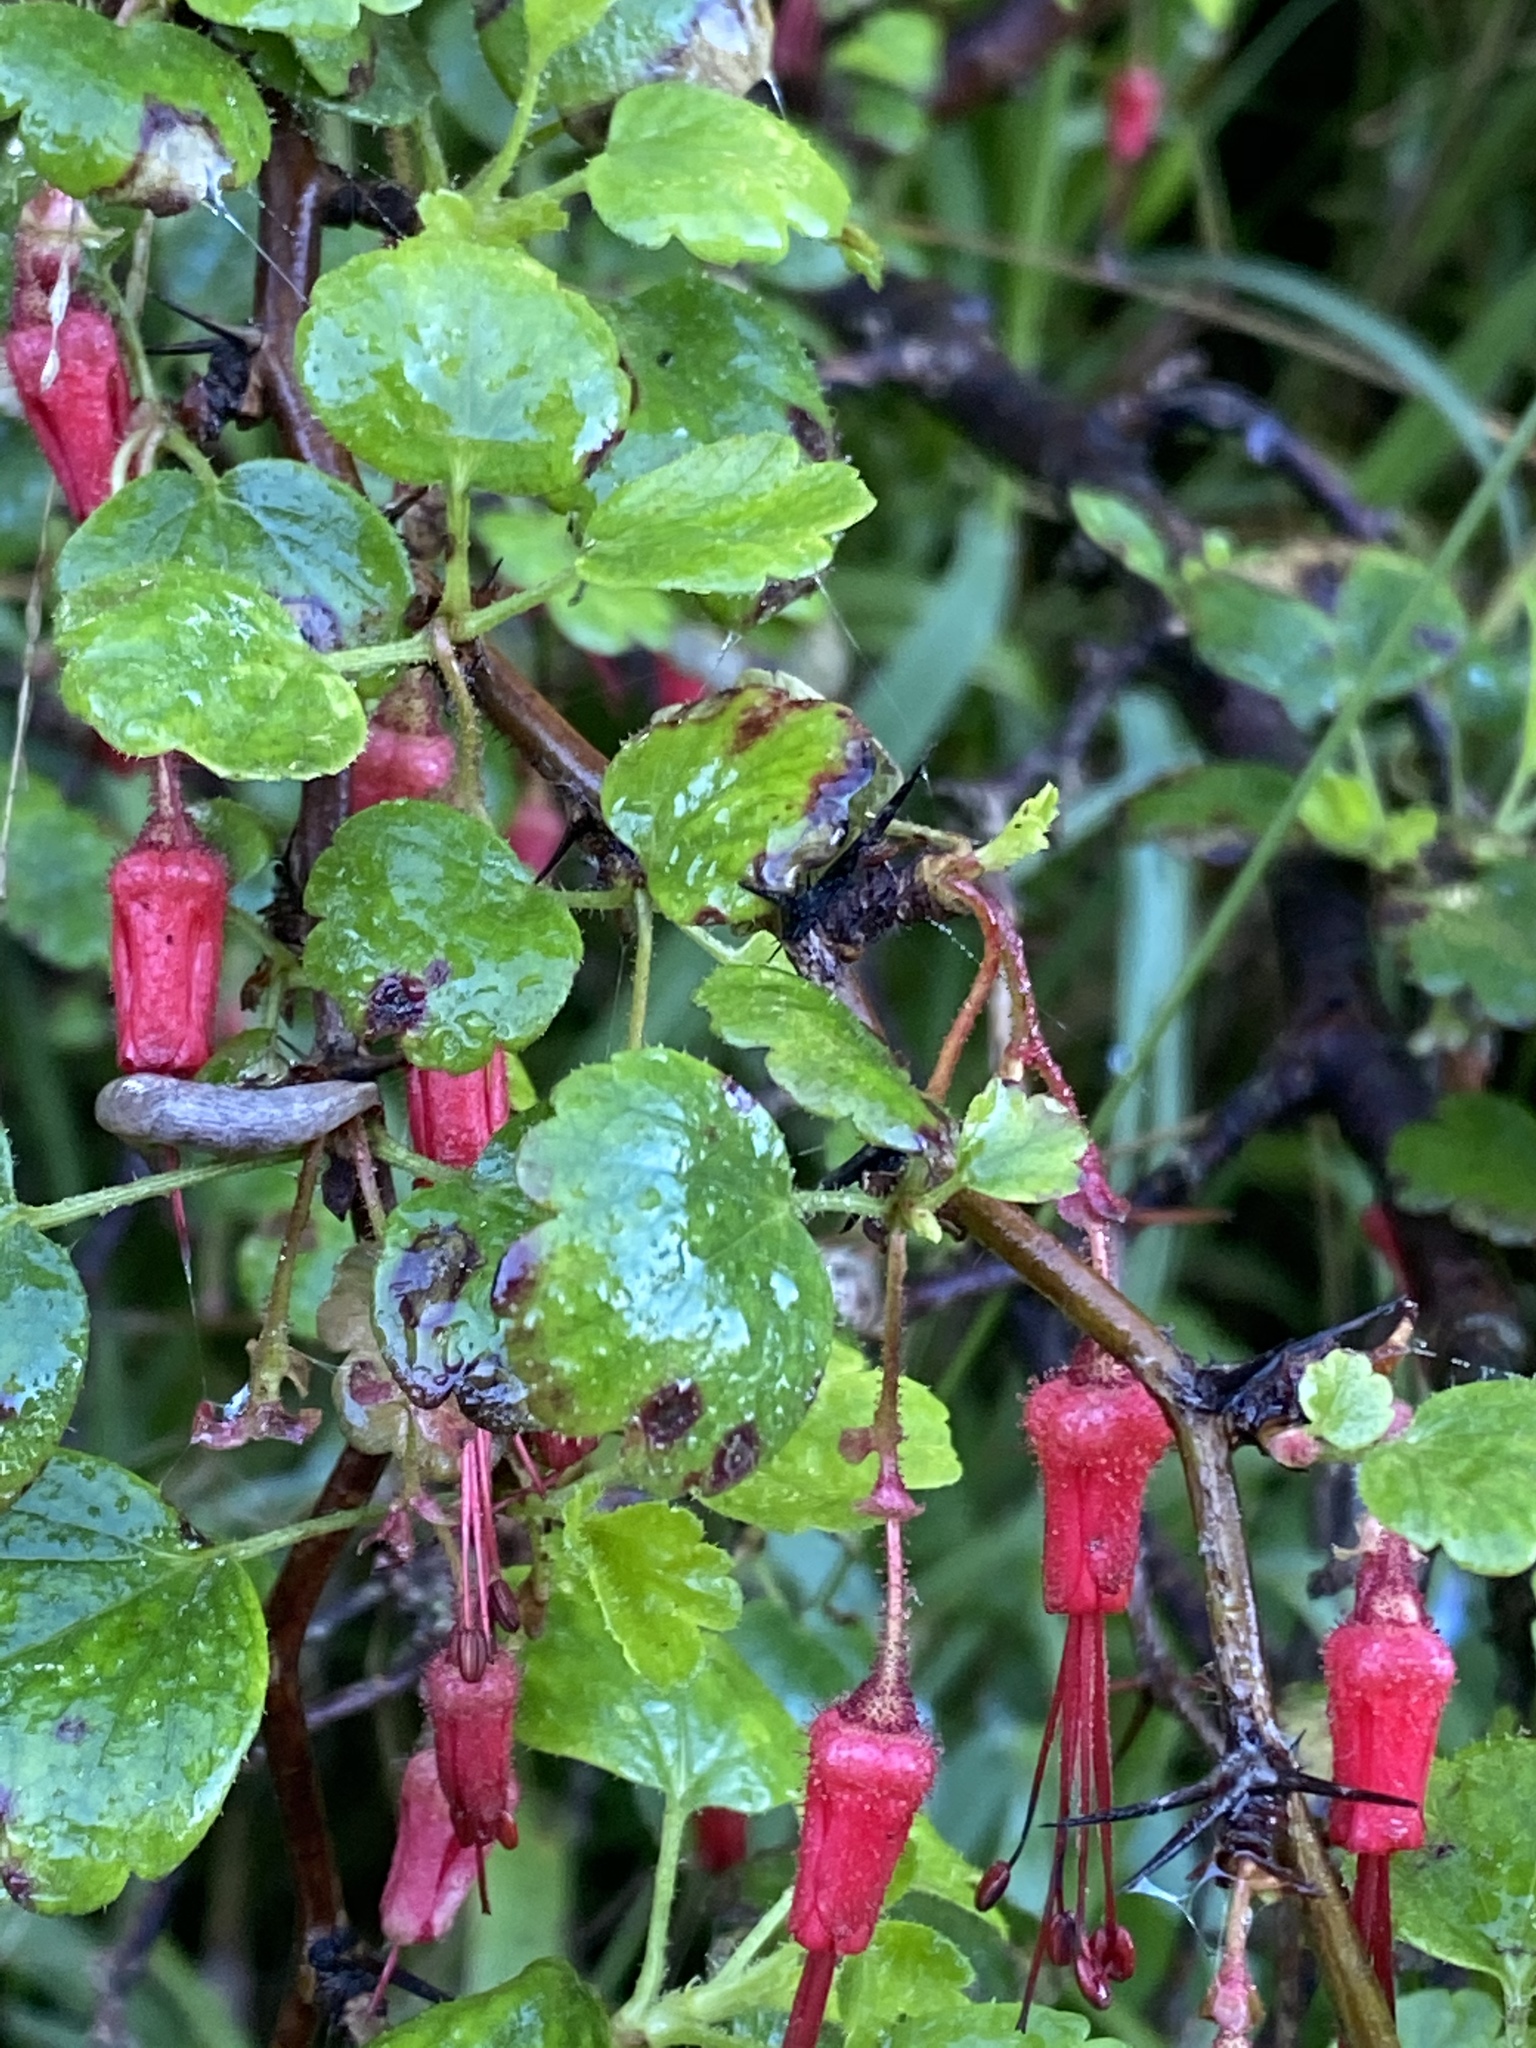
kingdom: Plantae
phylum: Tracheophyta
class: Magnoliopsida
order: Saxifragales
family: Grossulariaceae
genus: Ribes
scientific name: Ribes speciosum
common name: Fuchsia-flower gooseberry
